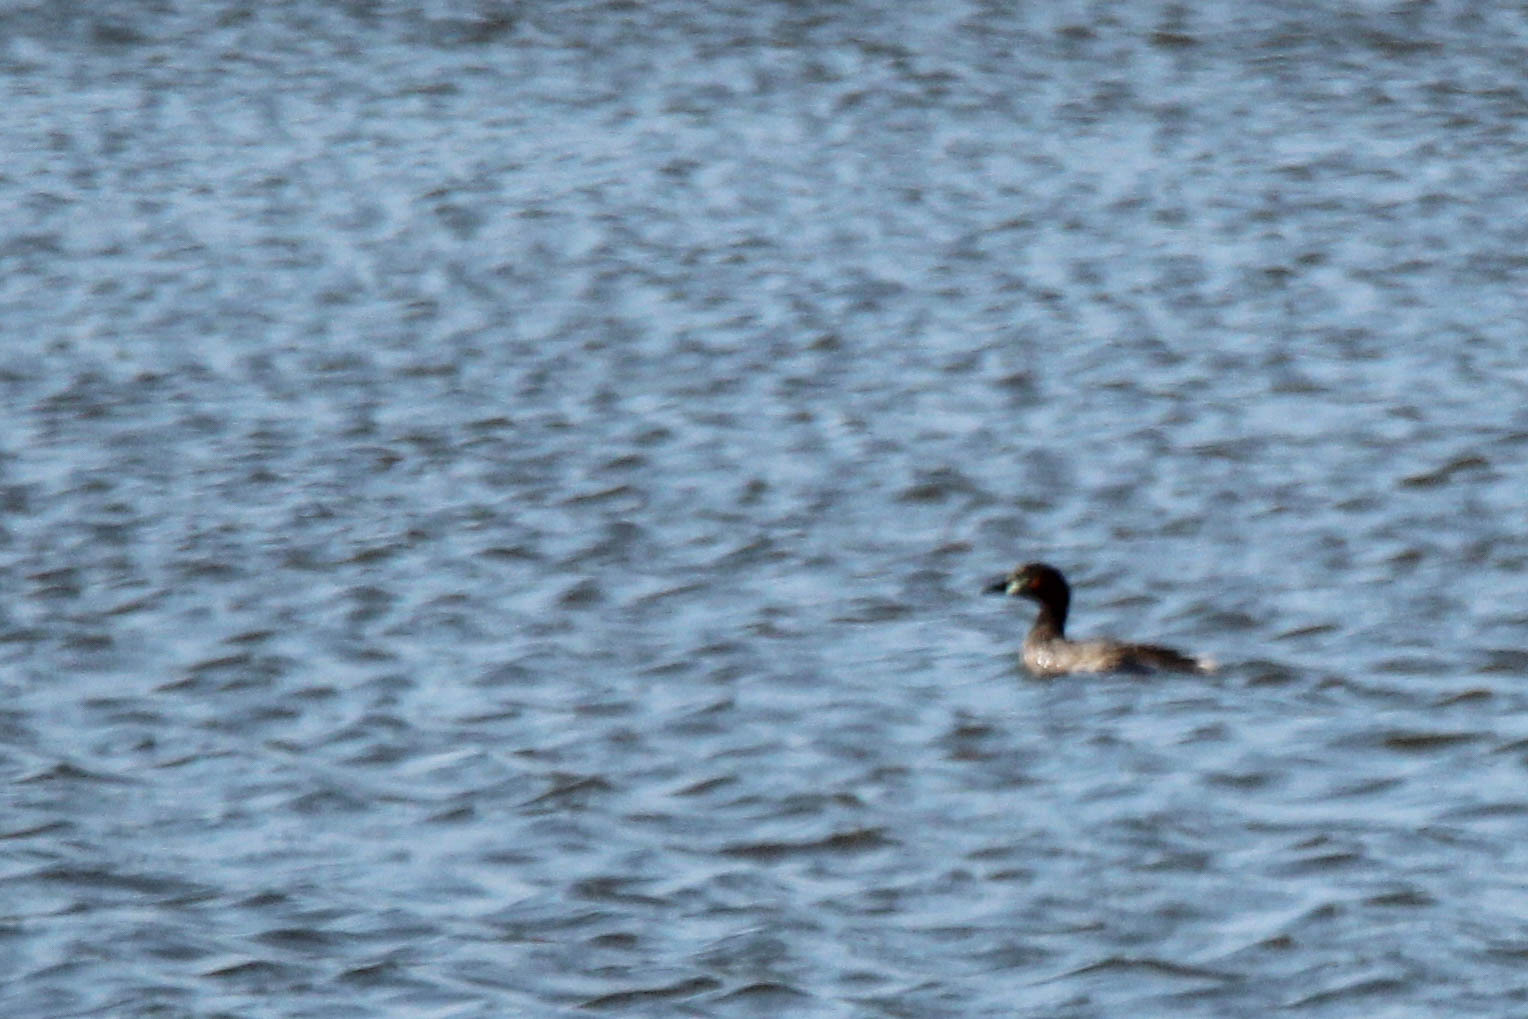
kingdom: Animalia
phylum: Chordata
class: Aves
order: Podicipediformes
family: Podicipedidae
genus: Tachybaptus
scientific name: Tachybaptus ruficollis
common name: Little grebe
